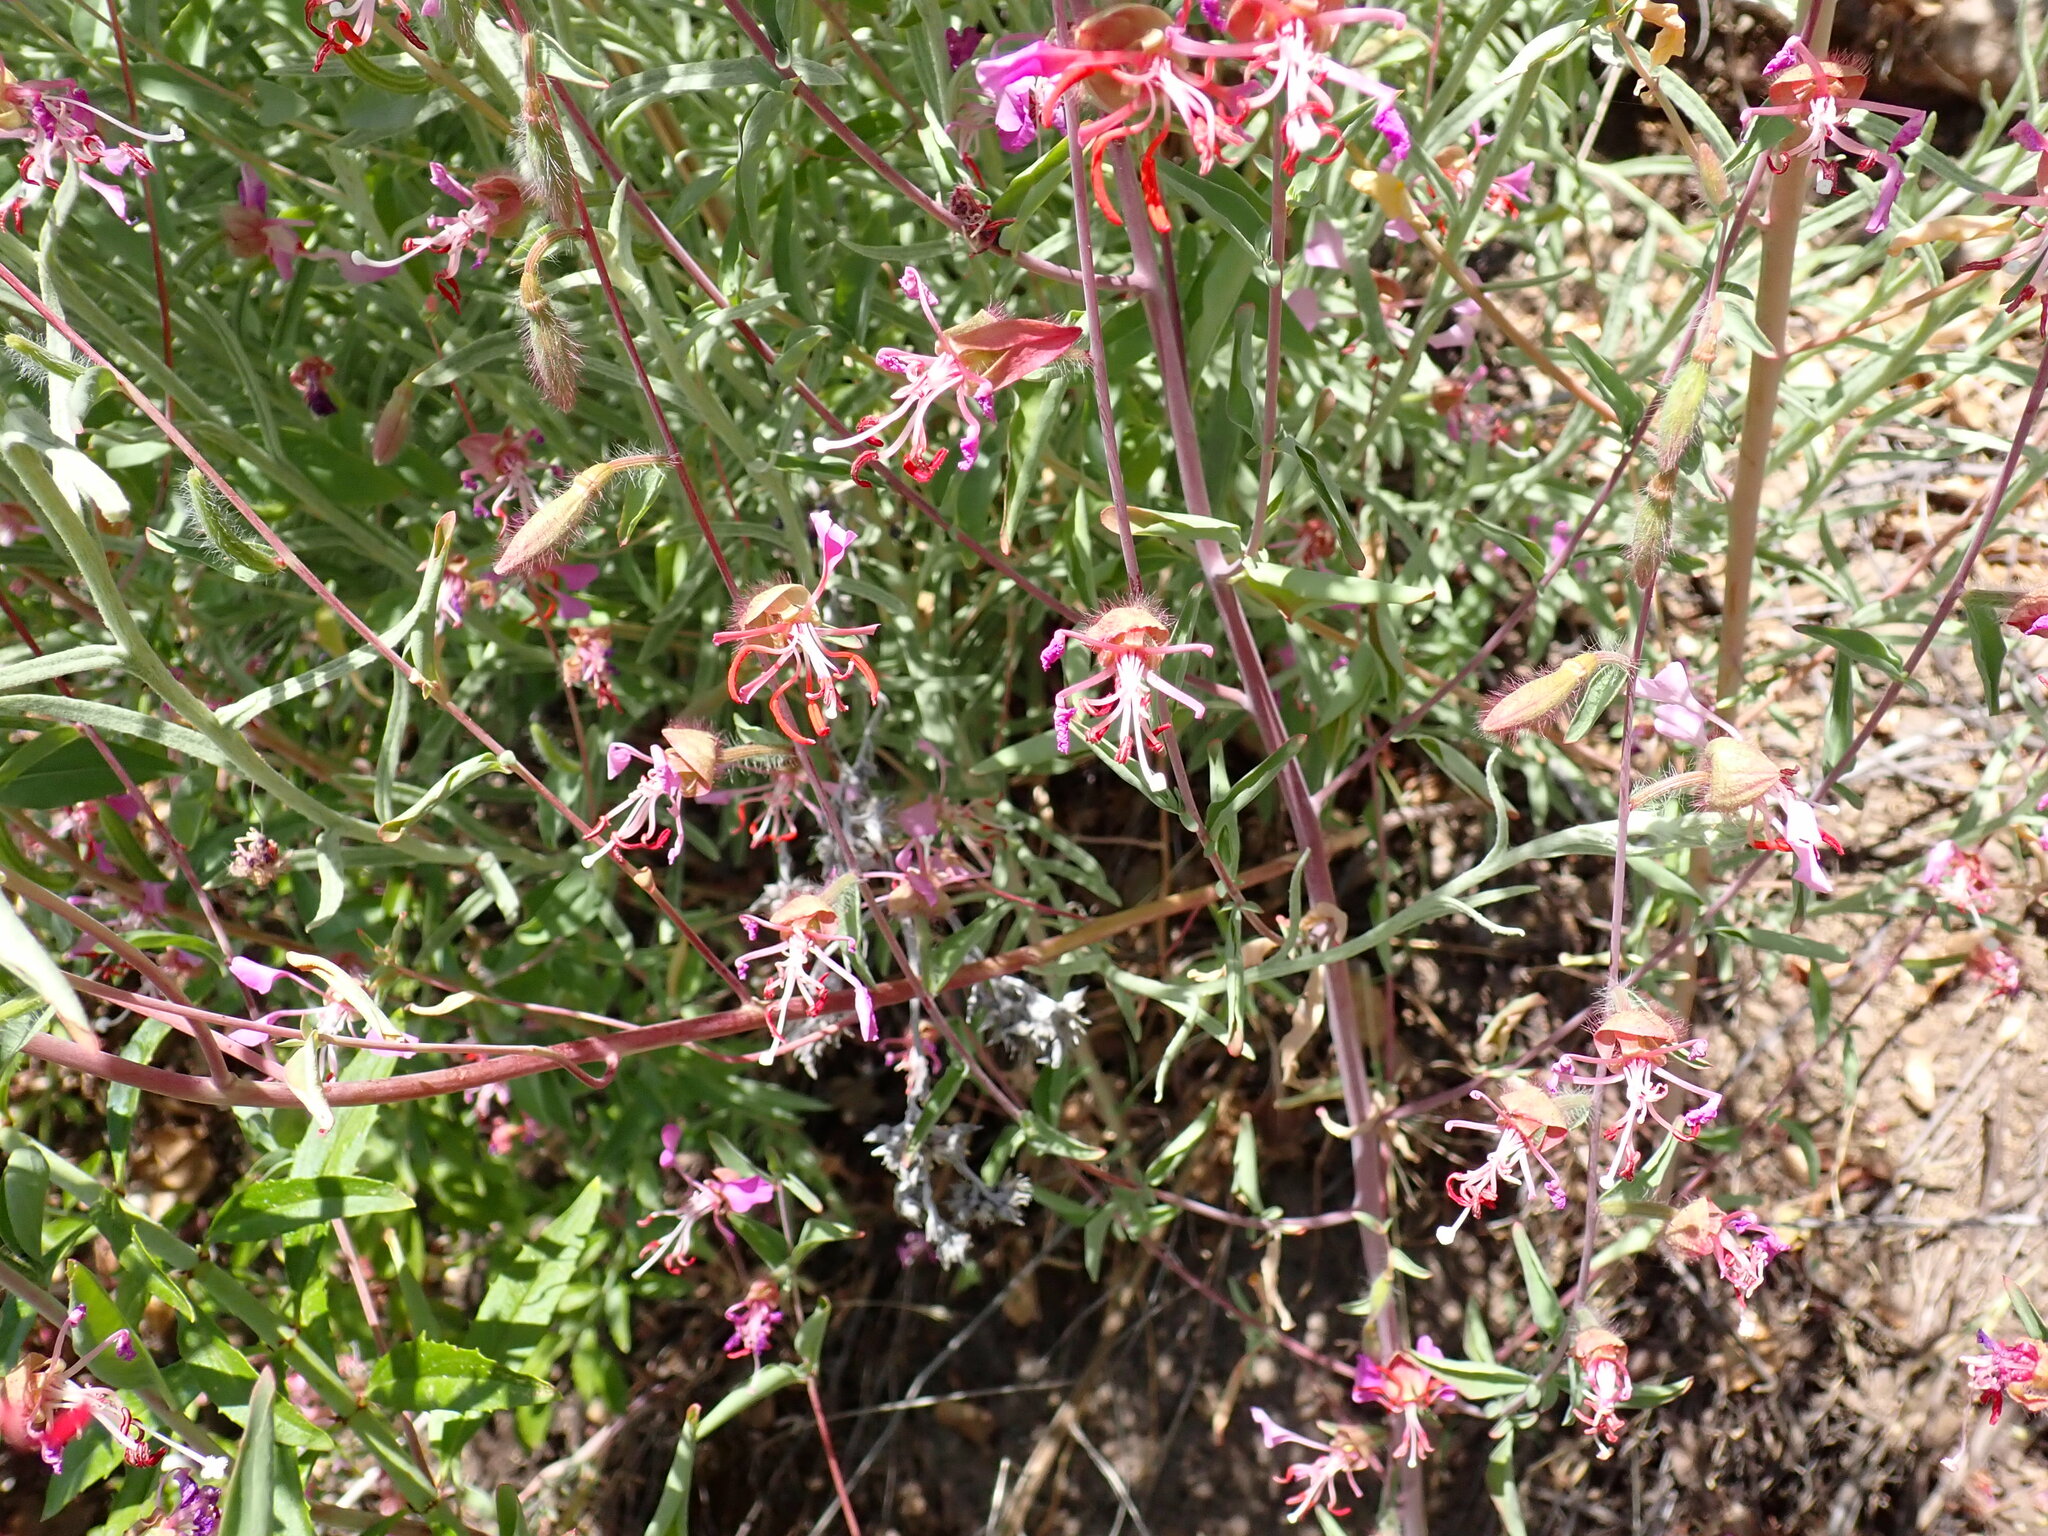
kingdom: Plantae
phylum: Tracheophyta
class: Magnoliopsida
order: Myrtales
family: Onagraceae
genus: Clarkia
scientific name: Clarkia unguiculata
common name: Clarkia
